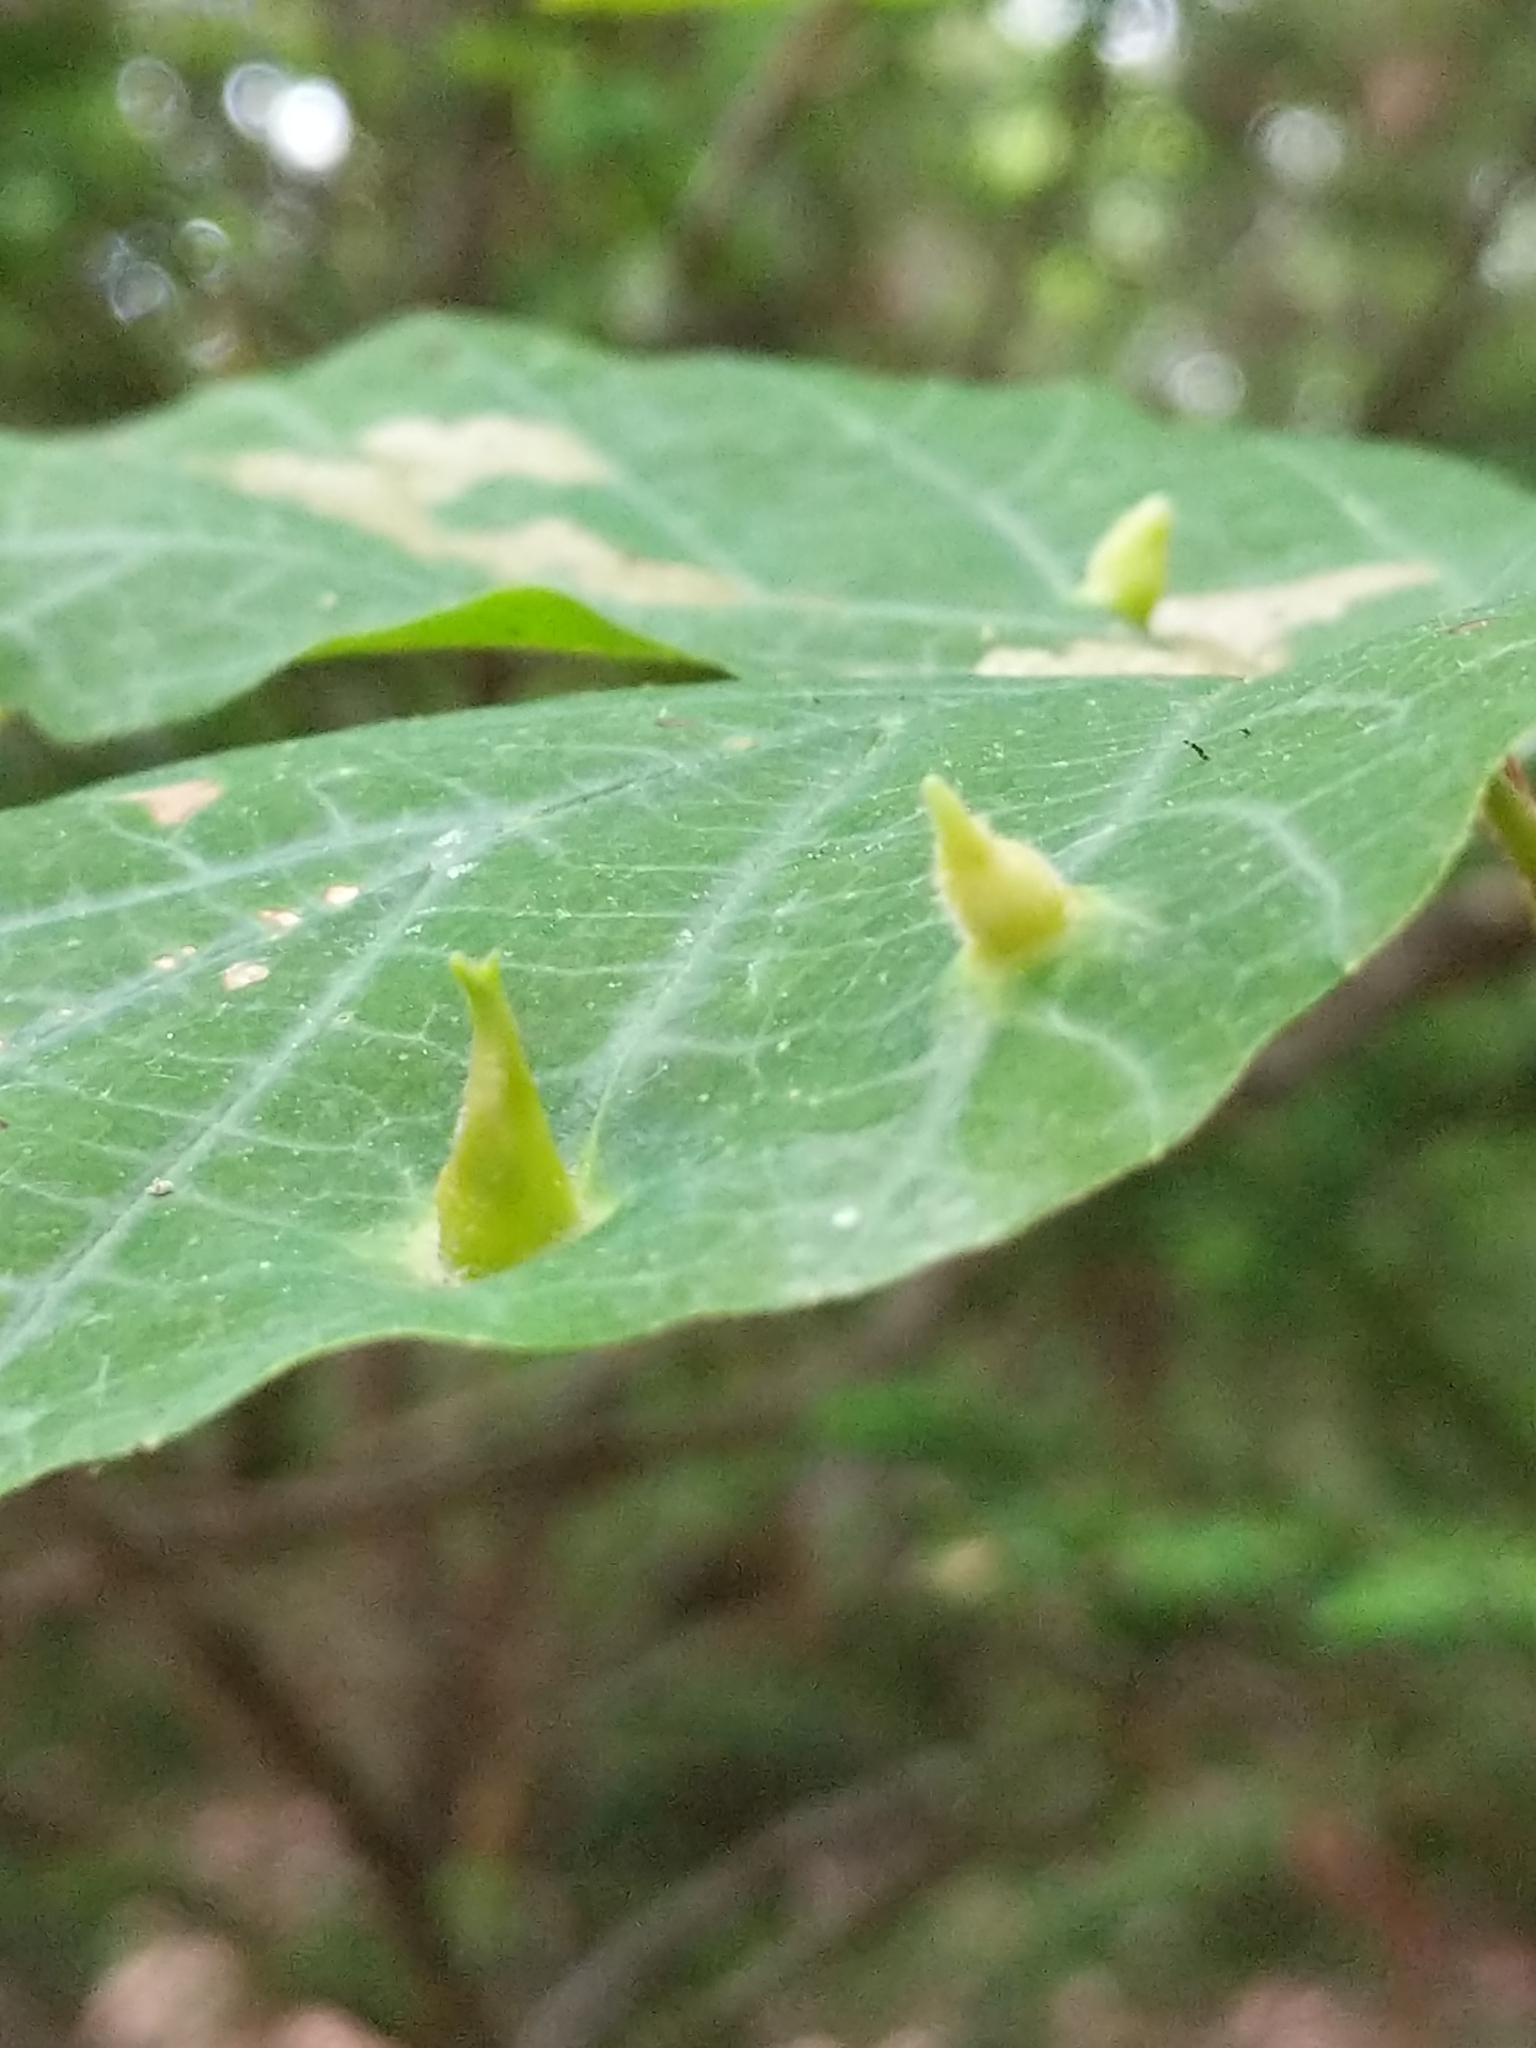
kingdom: Animalia
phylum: Arthropoda
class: Insecta
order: Hemiptera
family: Aphididae
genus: Hormaphis
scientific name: Hormaphis hamamelidis
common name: Witch-hazel cone gall aphid
